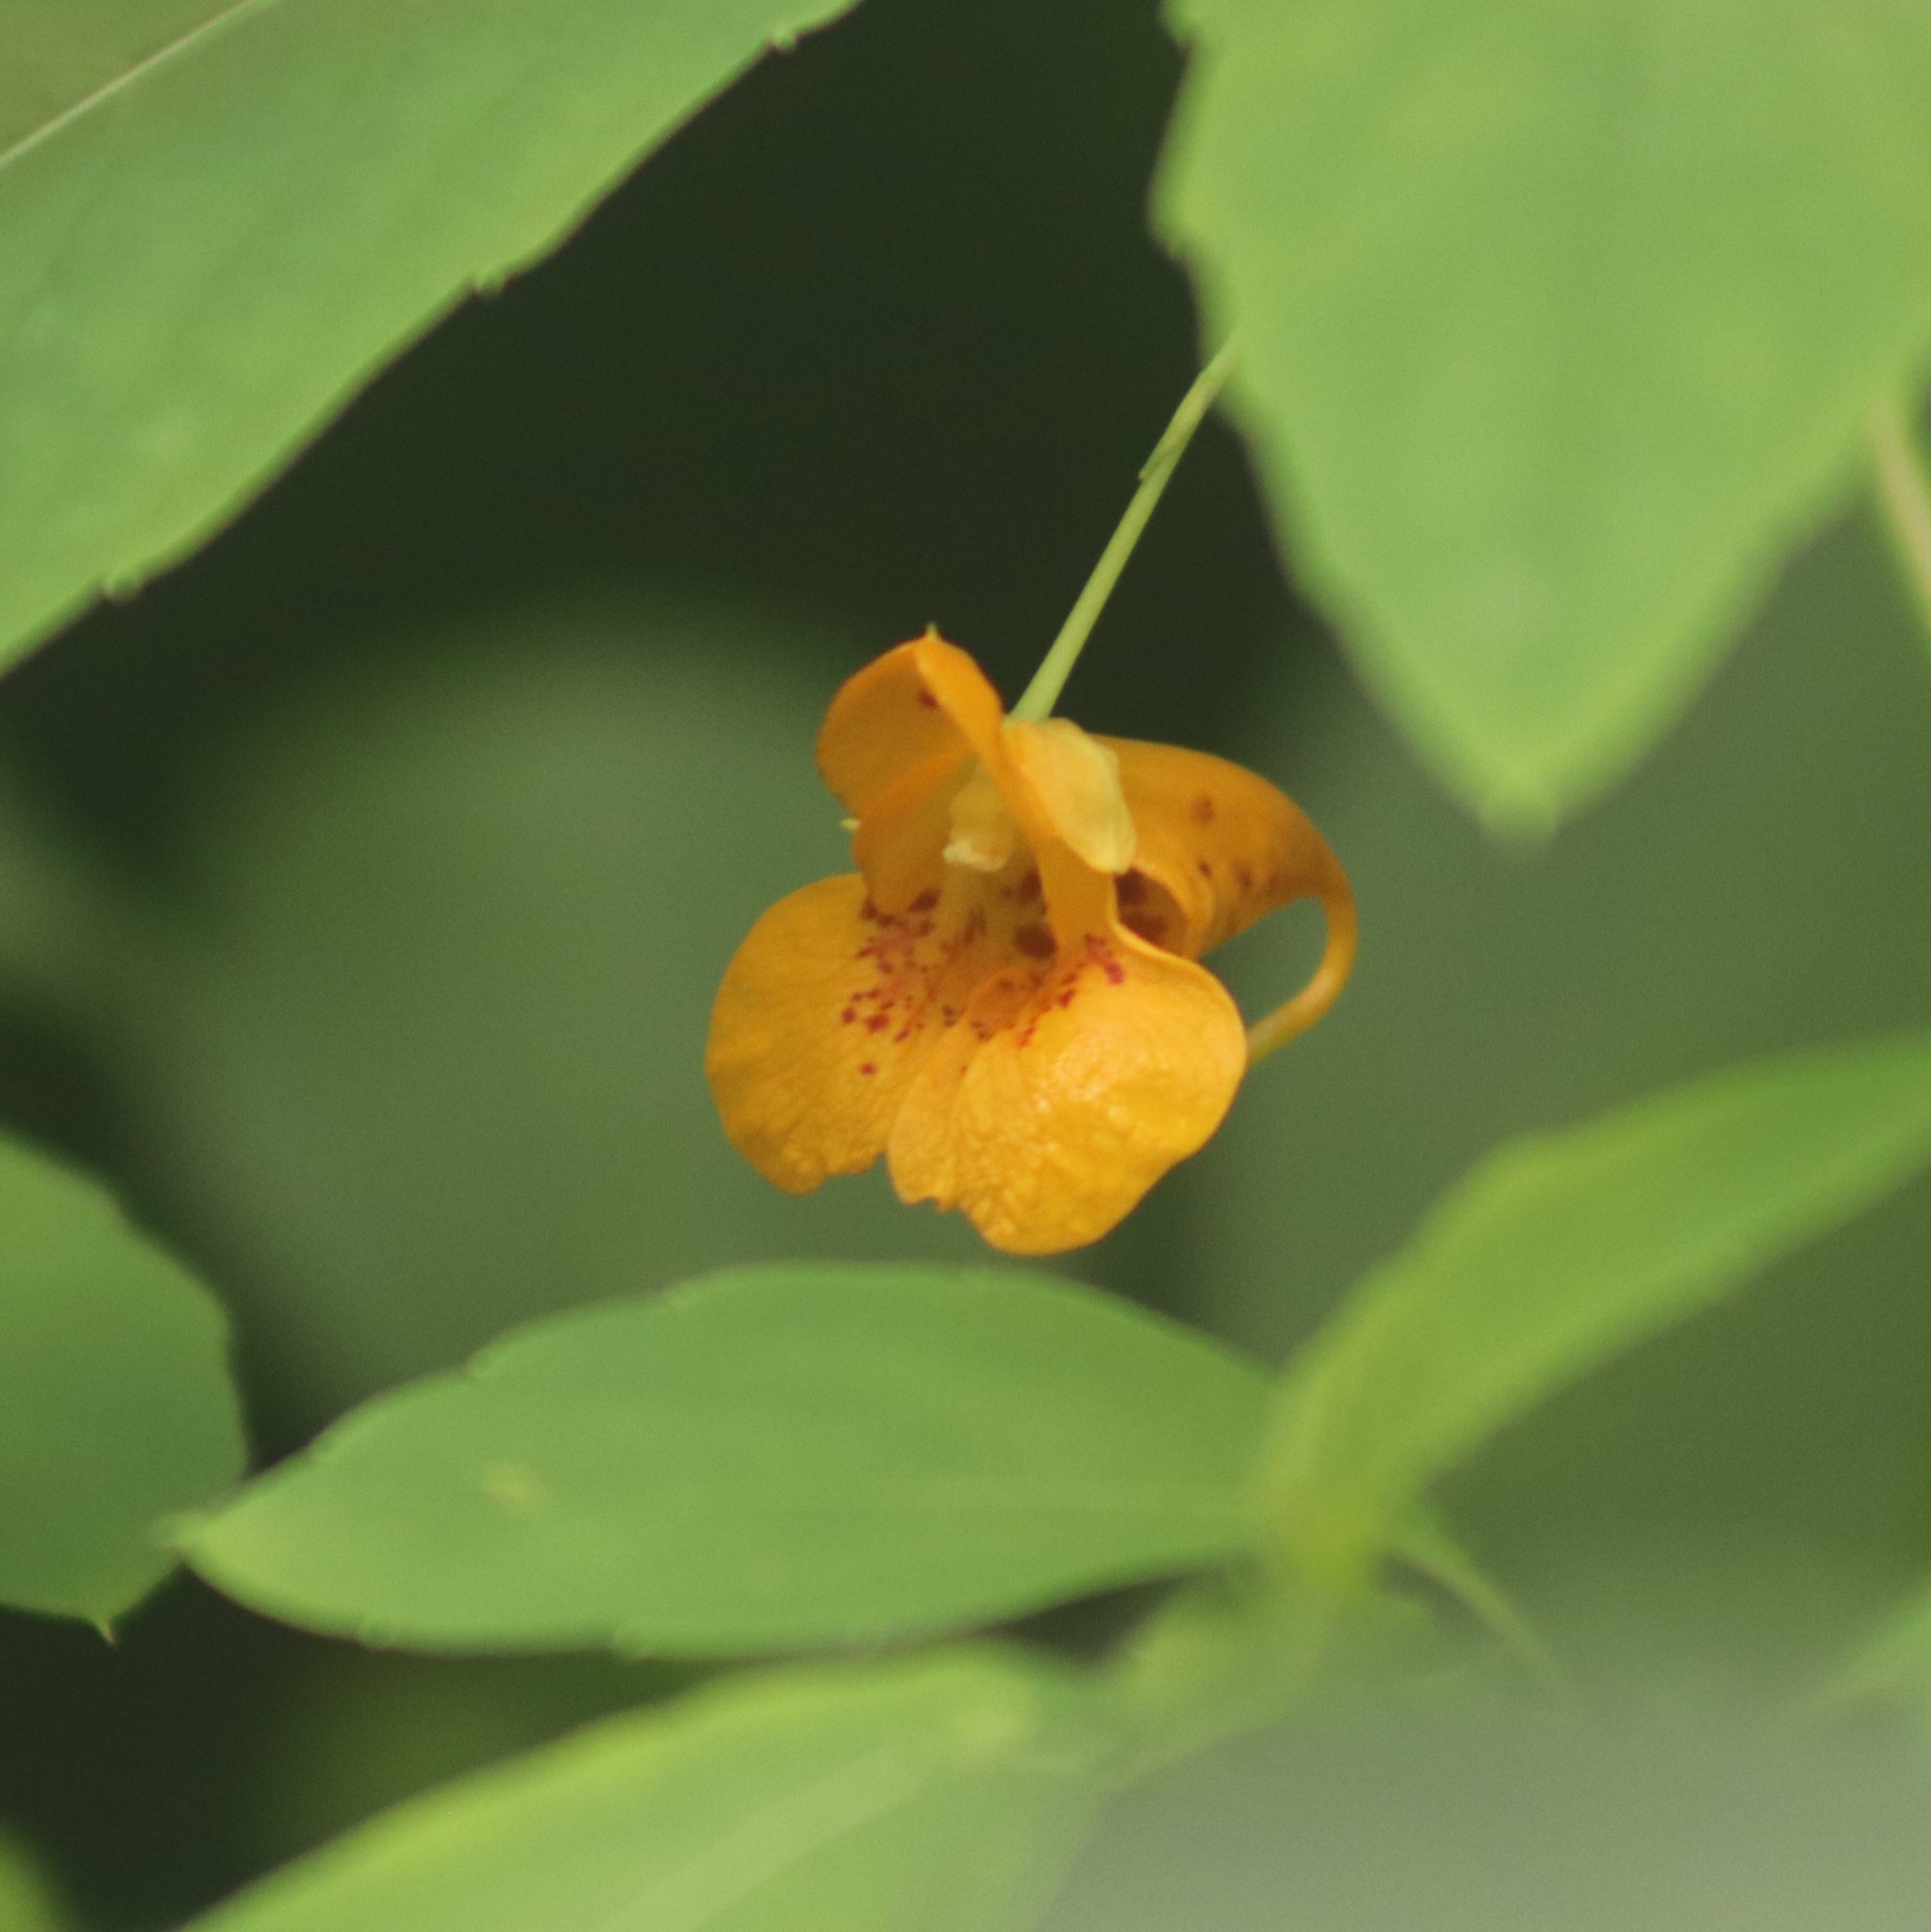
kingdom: Plantae
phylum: Tracheophyta
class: Magnoliopsida
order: Ericales
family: Balsaminaceae
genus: Impatiens
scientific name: Impatiens capensis
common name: Orange balsam
